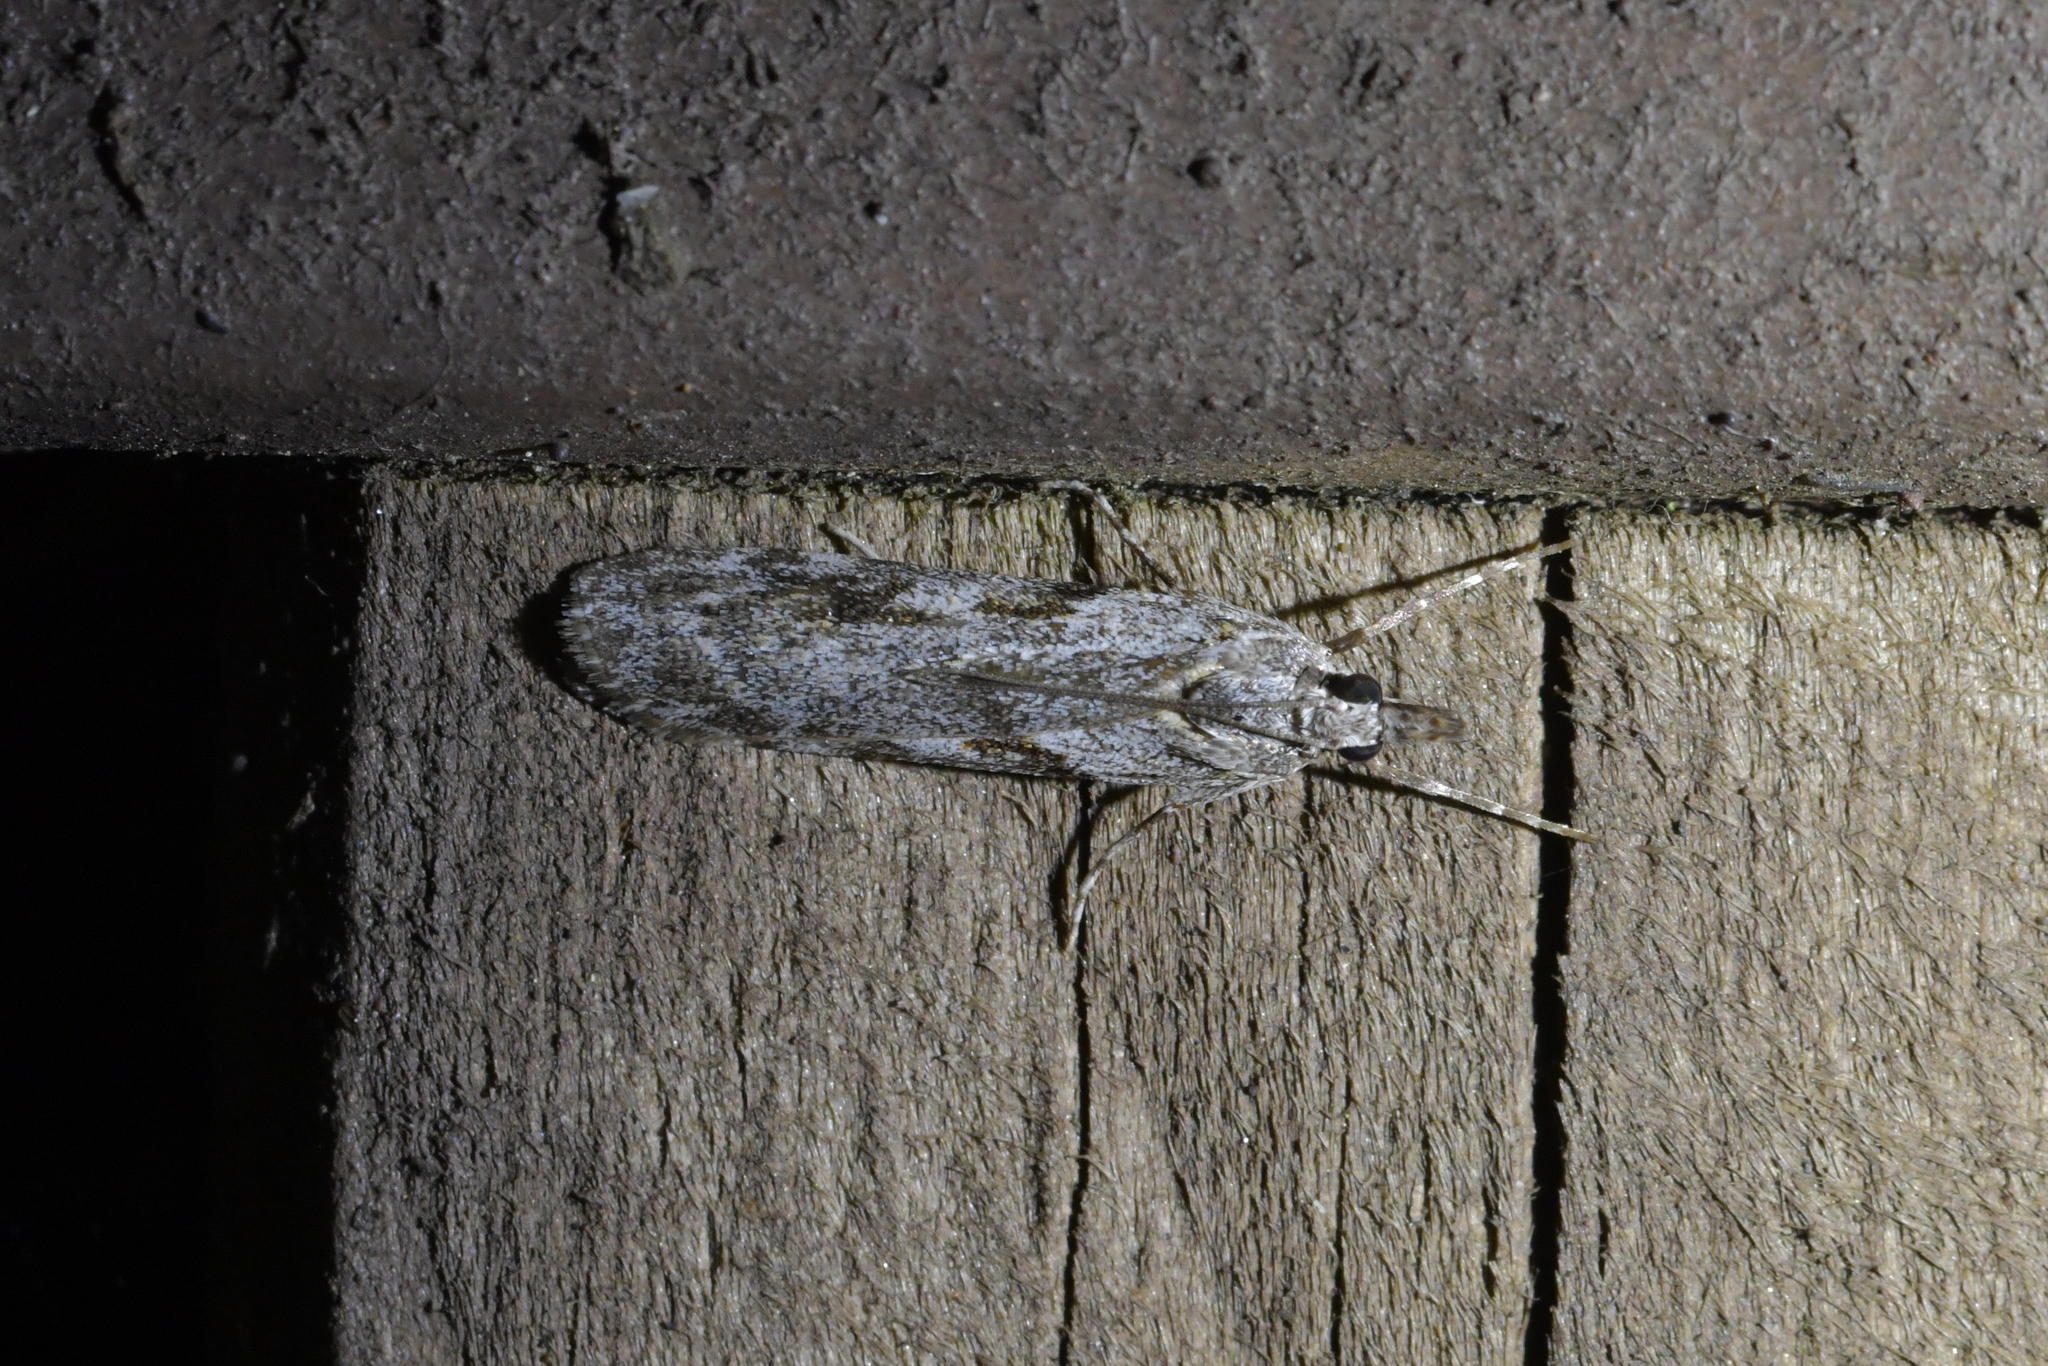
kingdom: Animalia
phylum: Arthropoda
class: Insecta
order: Lepidoptera
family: Crambidae
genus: Scoparia
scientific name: Scoparia halopis
